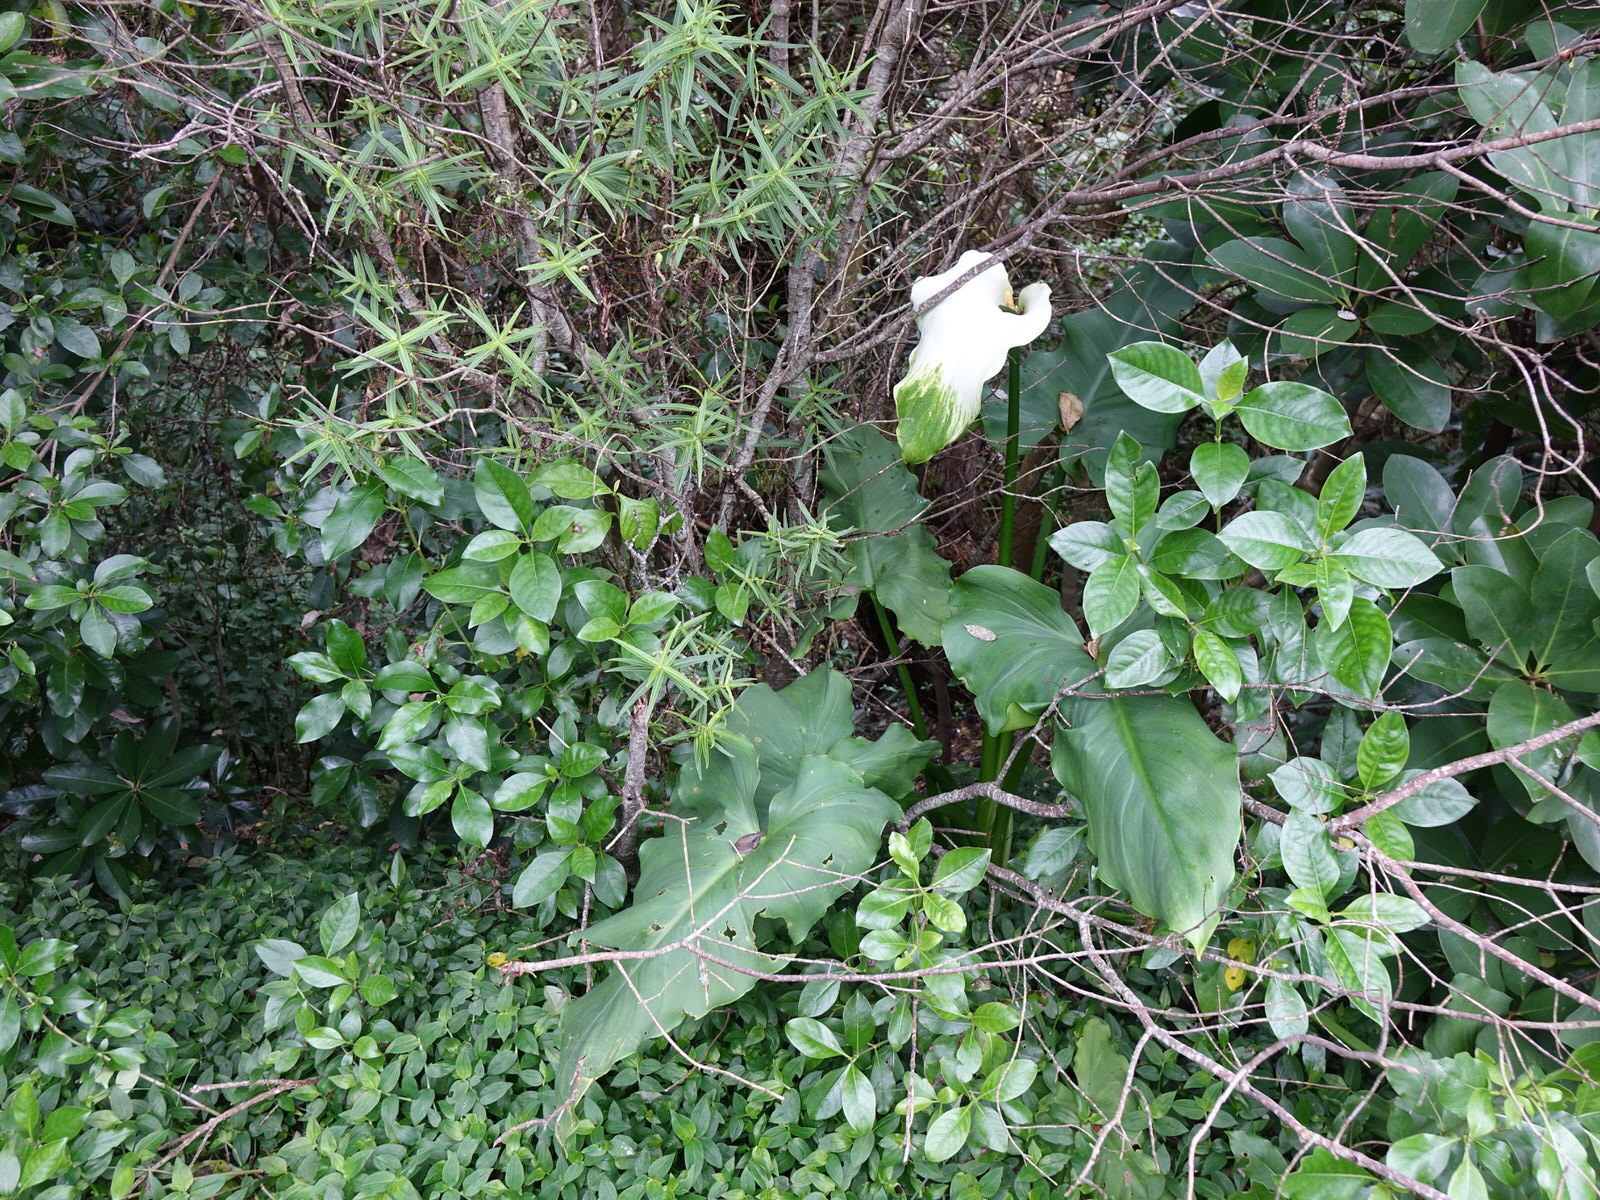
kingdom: Plantae
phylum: Tracheophyta
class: Liliopsida
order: Alismatales
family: Araceae
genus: Zantedeschia
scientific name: Zantedeschia aethiopica
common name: Altar-lily
